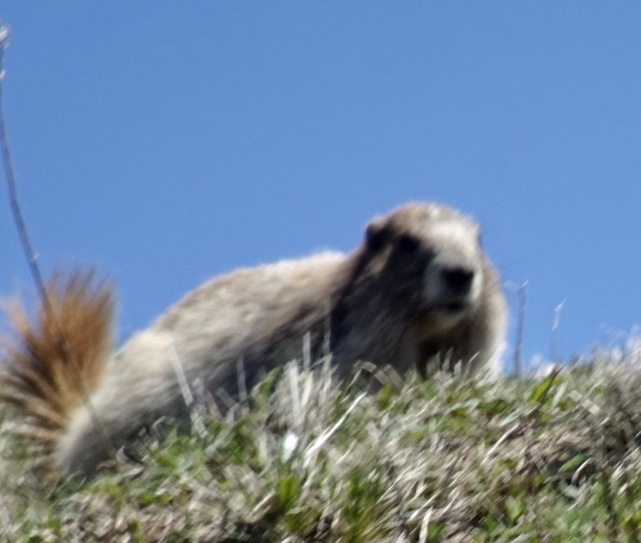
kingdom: Animalia
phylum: Chordata
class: Mammalia
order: Rodentia
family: Sciuridae
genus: Marmota
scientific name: Marmota olympus
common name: Olympic marmot
